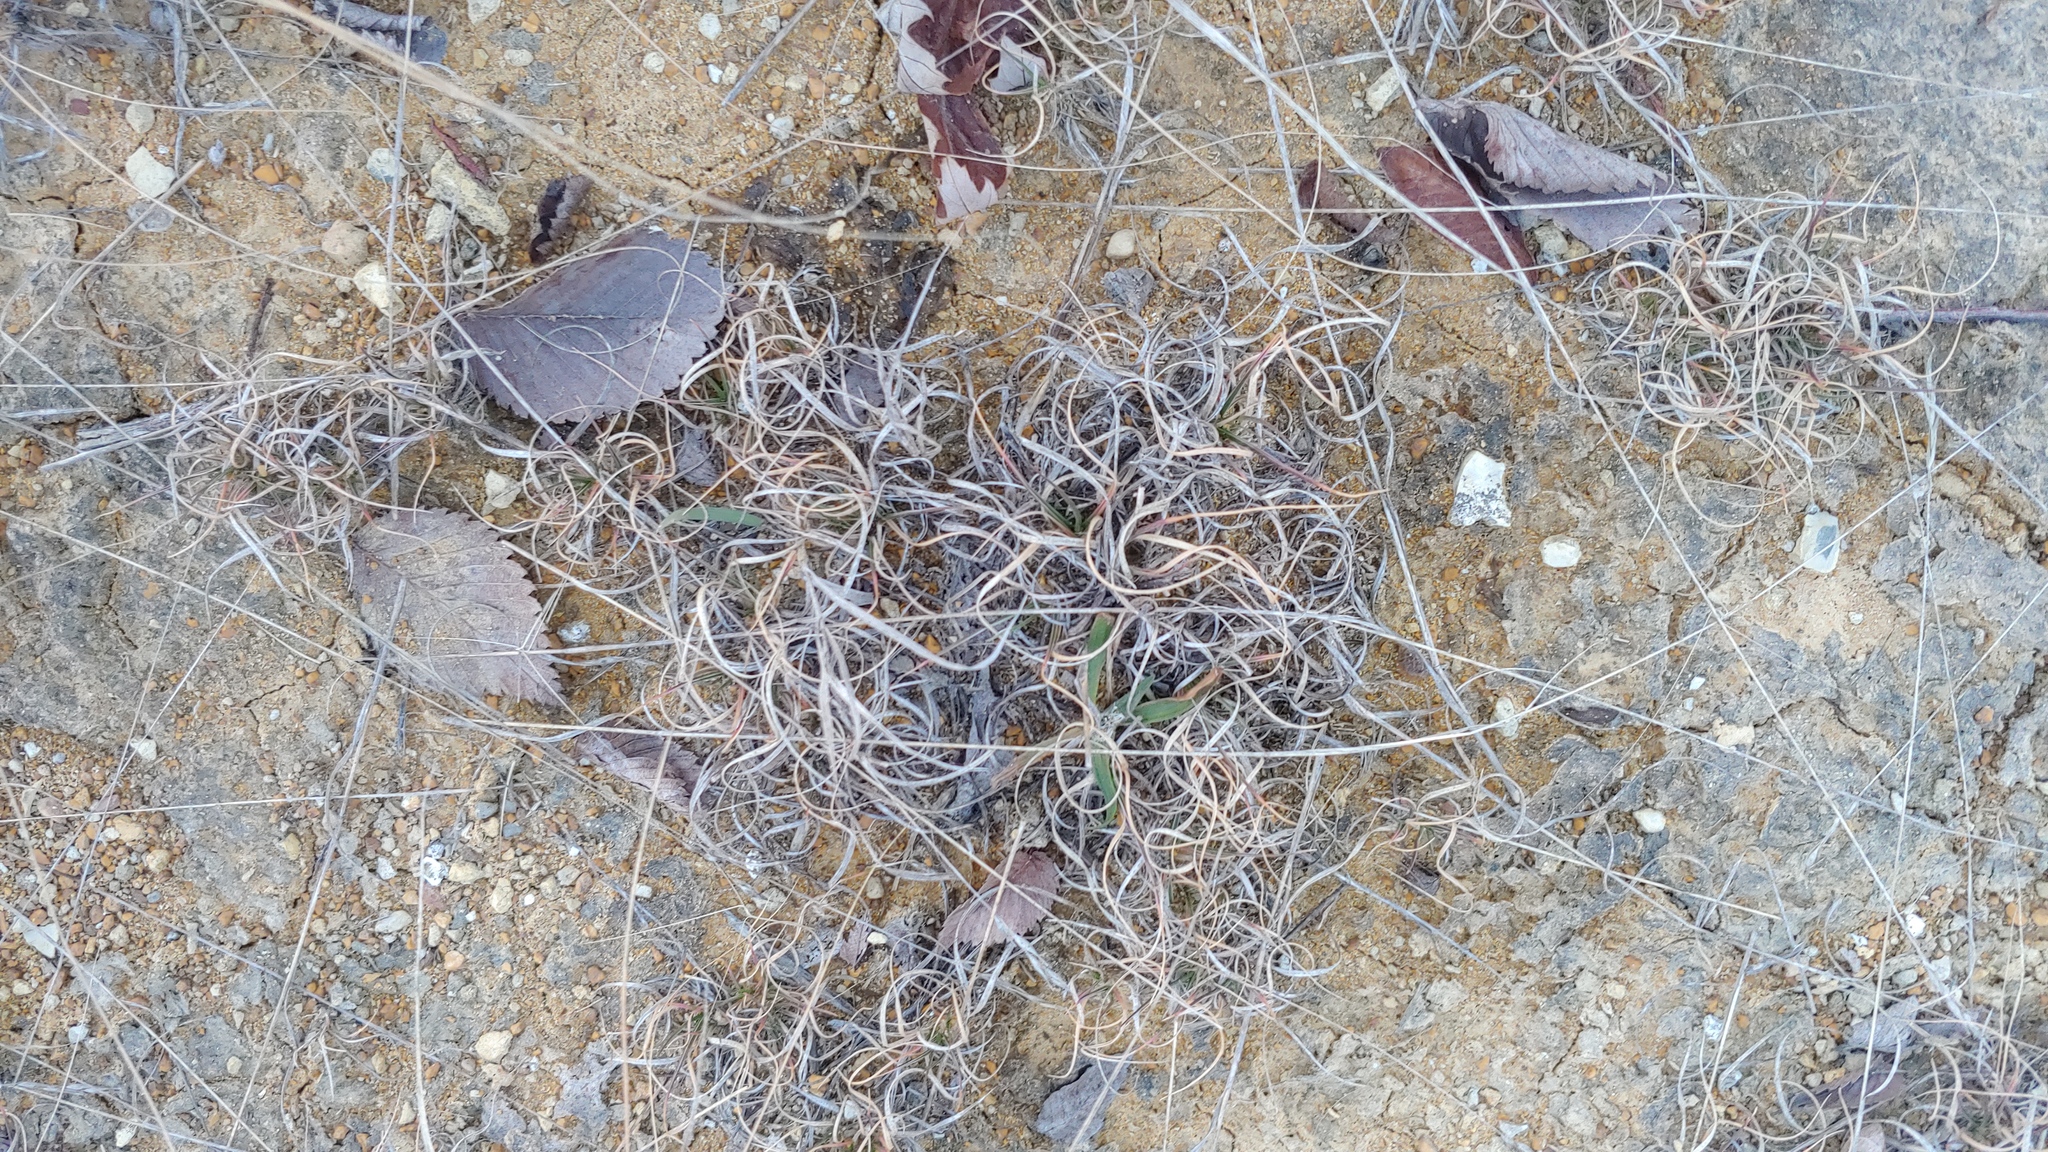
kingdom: Plantae
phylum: Tracheophyta
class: Liliopsida
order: Poales
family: Poaceae
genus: Danthonia
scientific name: Danthonia spicata
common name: Common wild oatgrass
